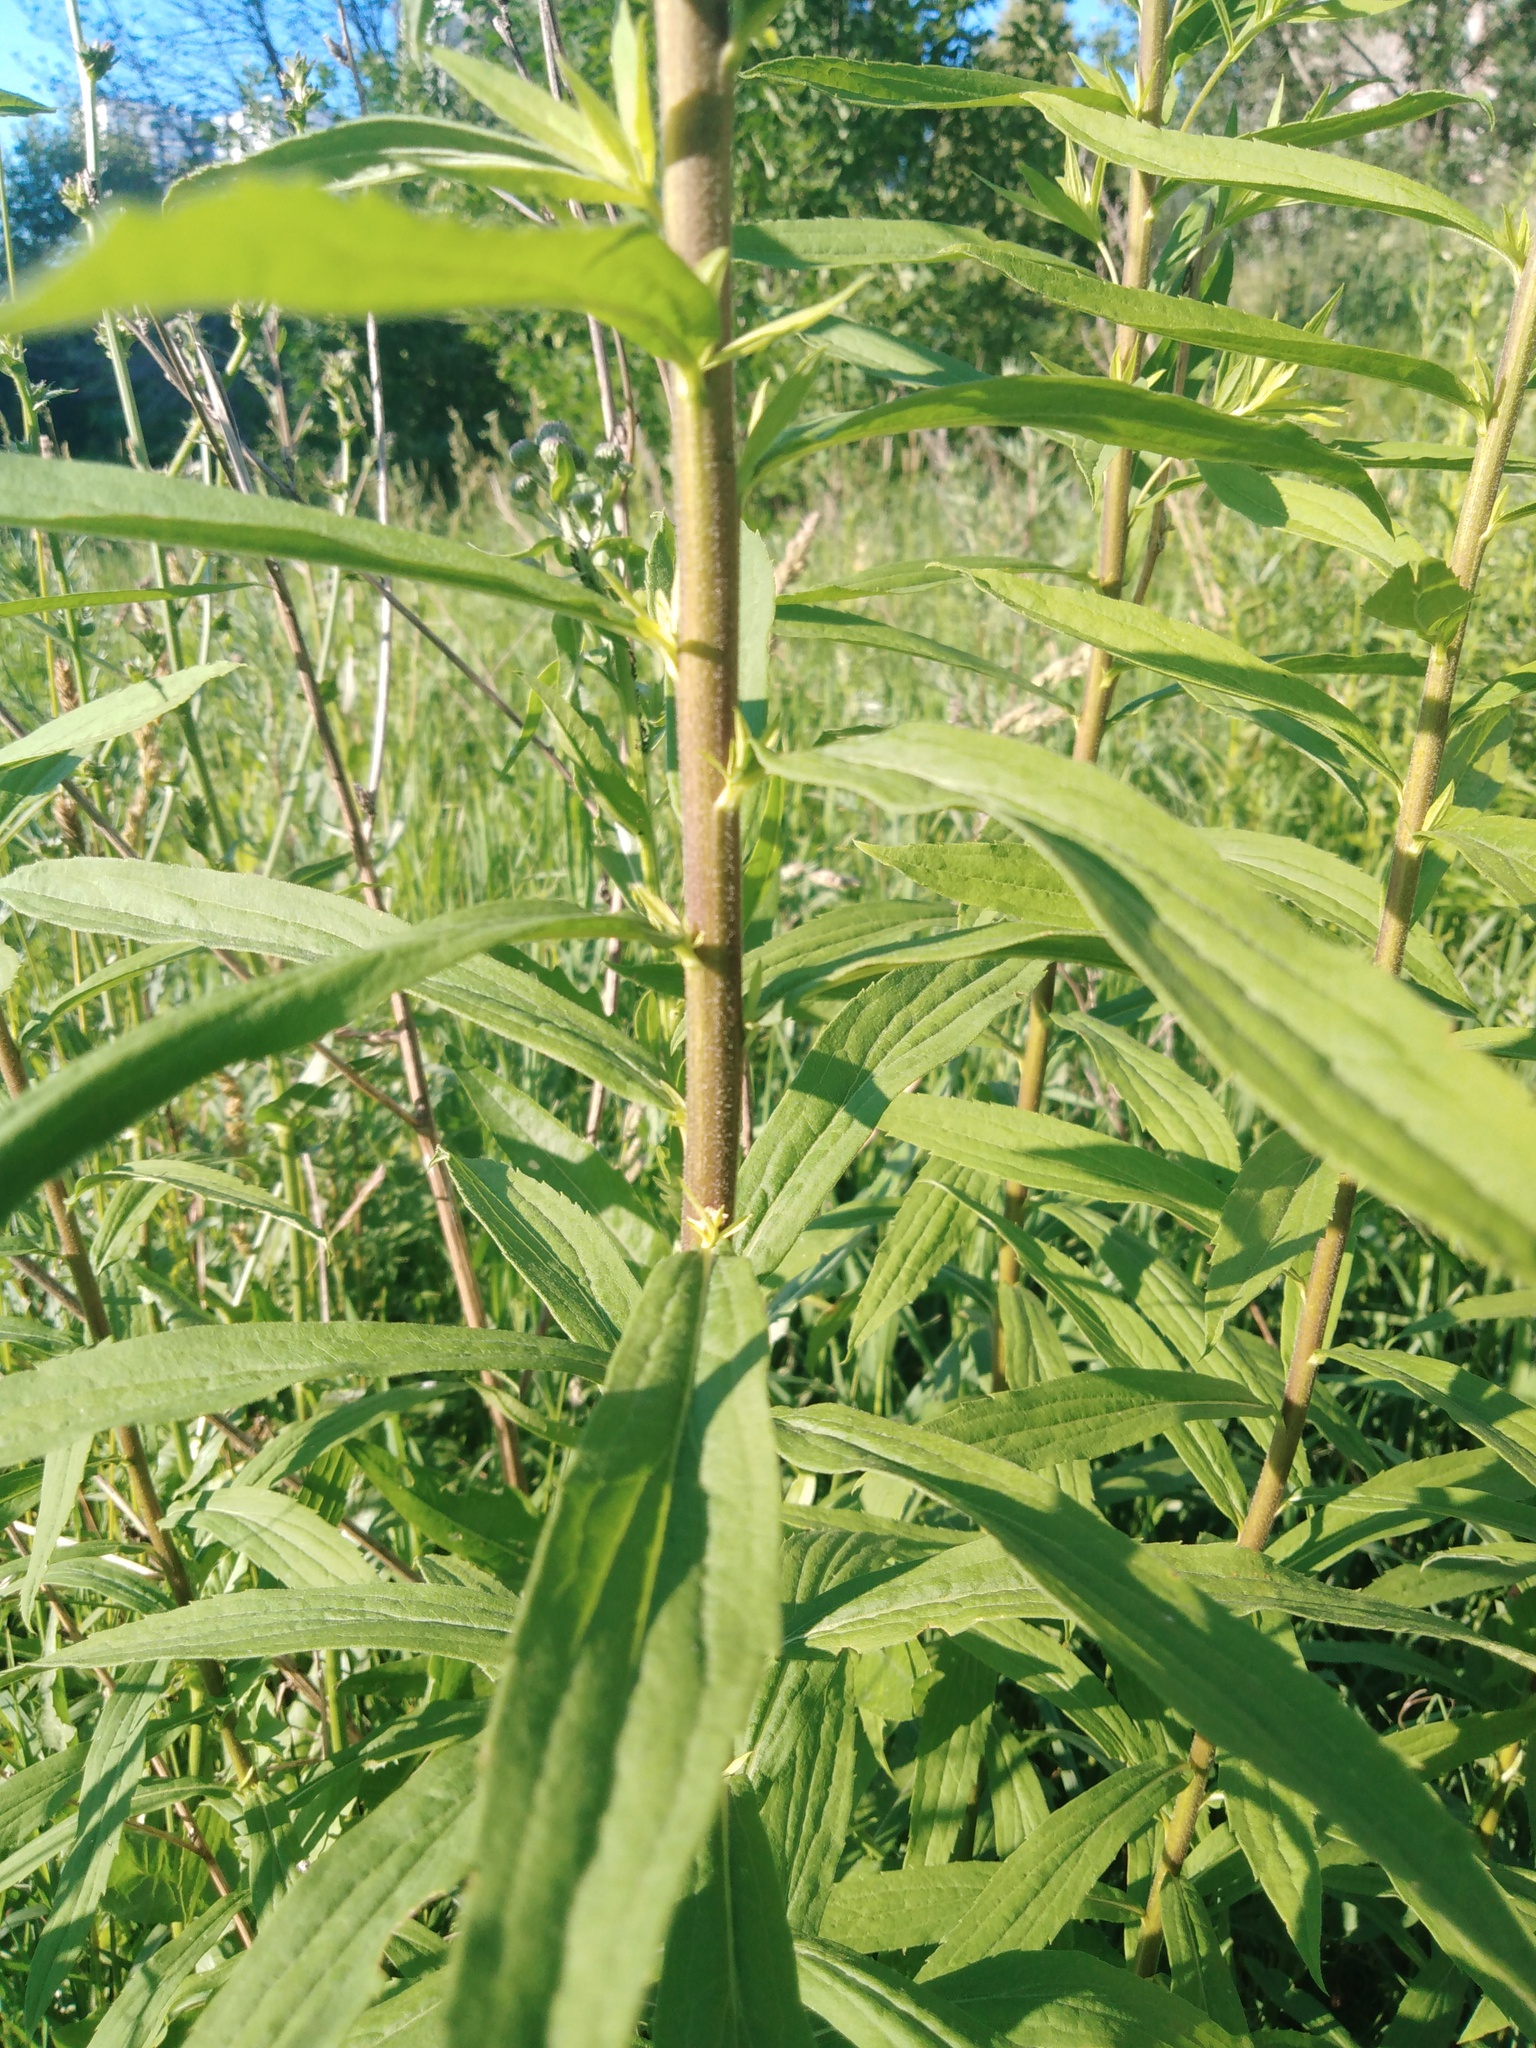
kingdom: Plantae
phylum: Tracheophyta
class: Magnoliopsida
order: Asterales
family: Asteraceae
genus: Solidago
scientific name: Solidago canadensis
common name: Canada goldenrod
